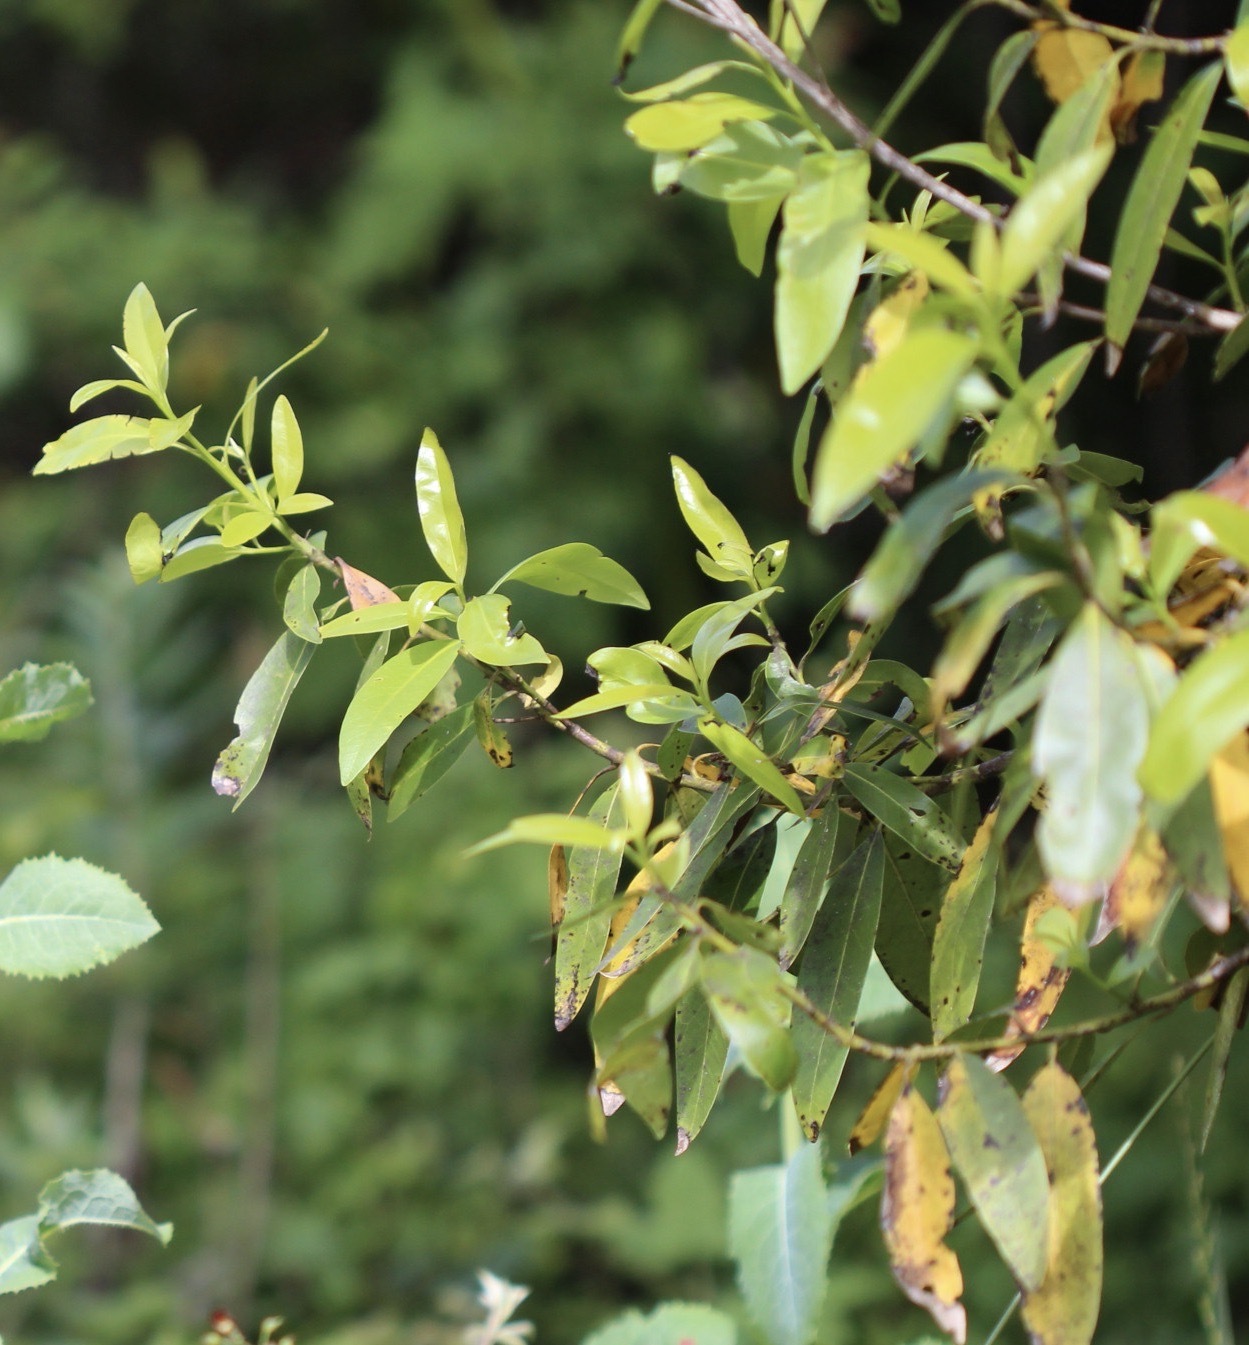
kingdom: Plantae
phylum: Tracheophyta
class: Magnoliopsida
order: Laurales
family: Lauraceae
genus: Umbellularia
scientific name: Umbellularia californica
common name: California bay
